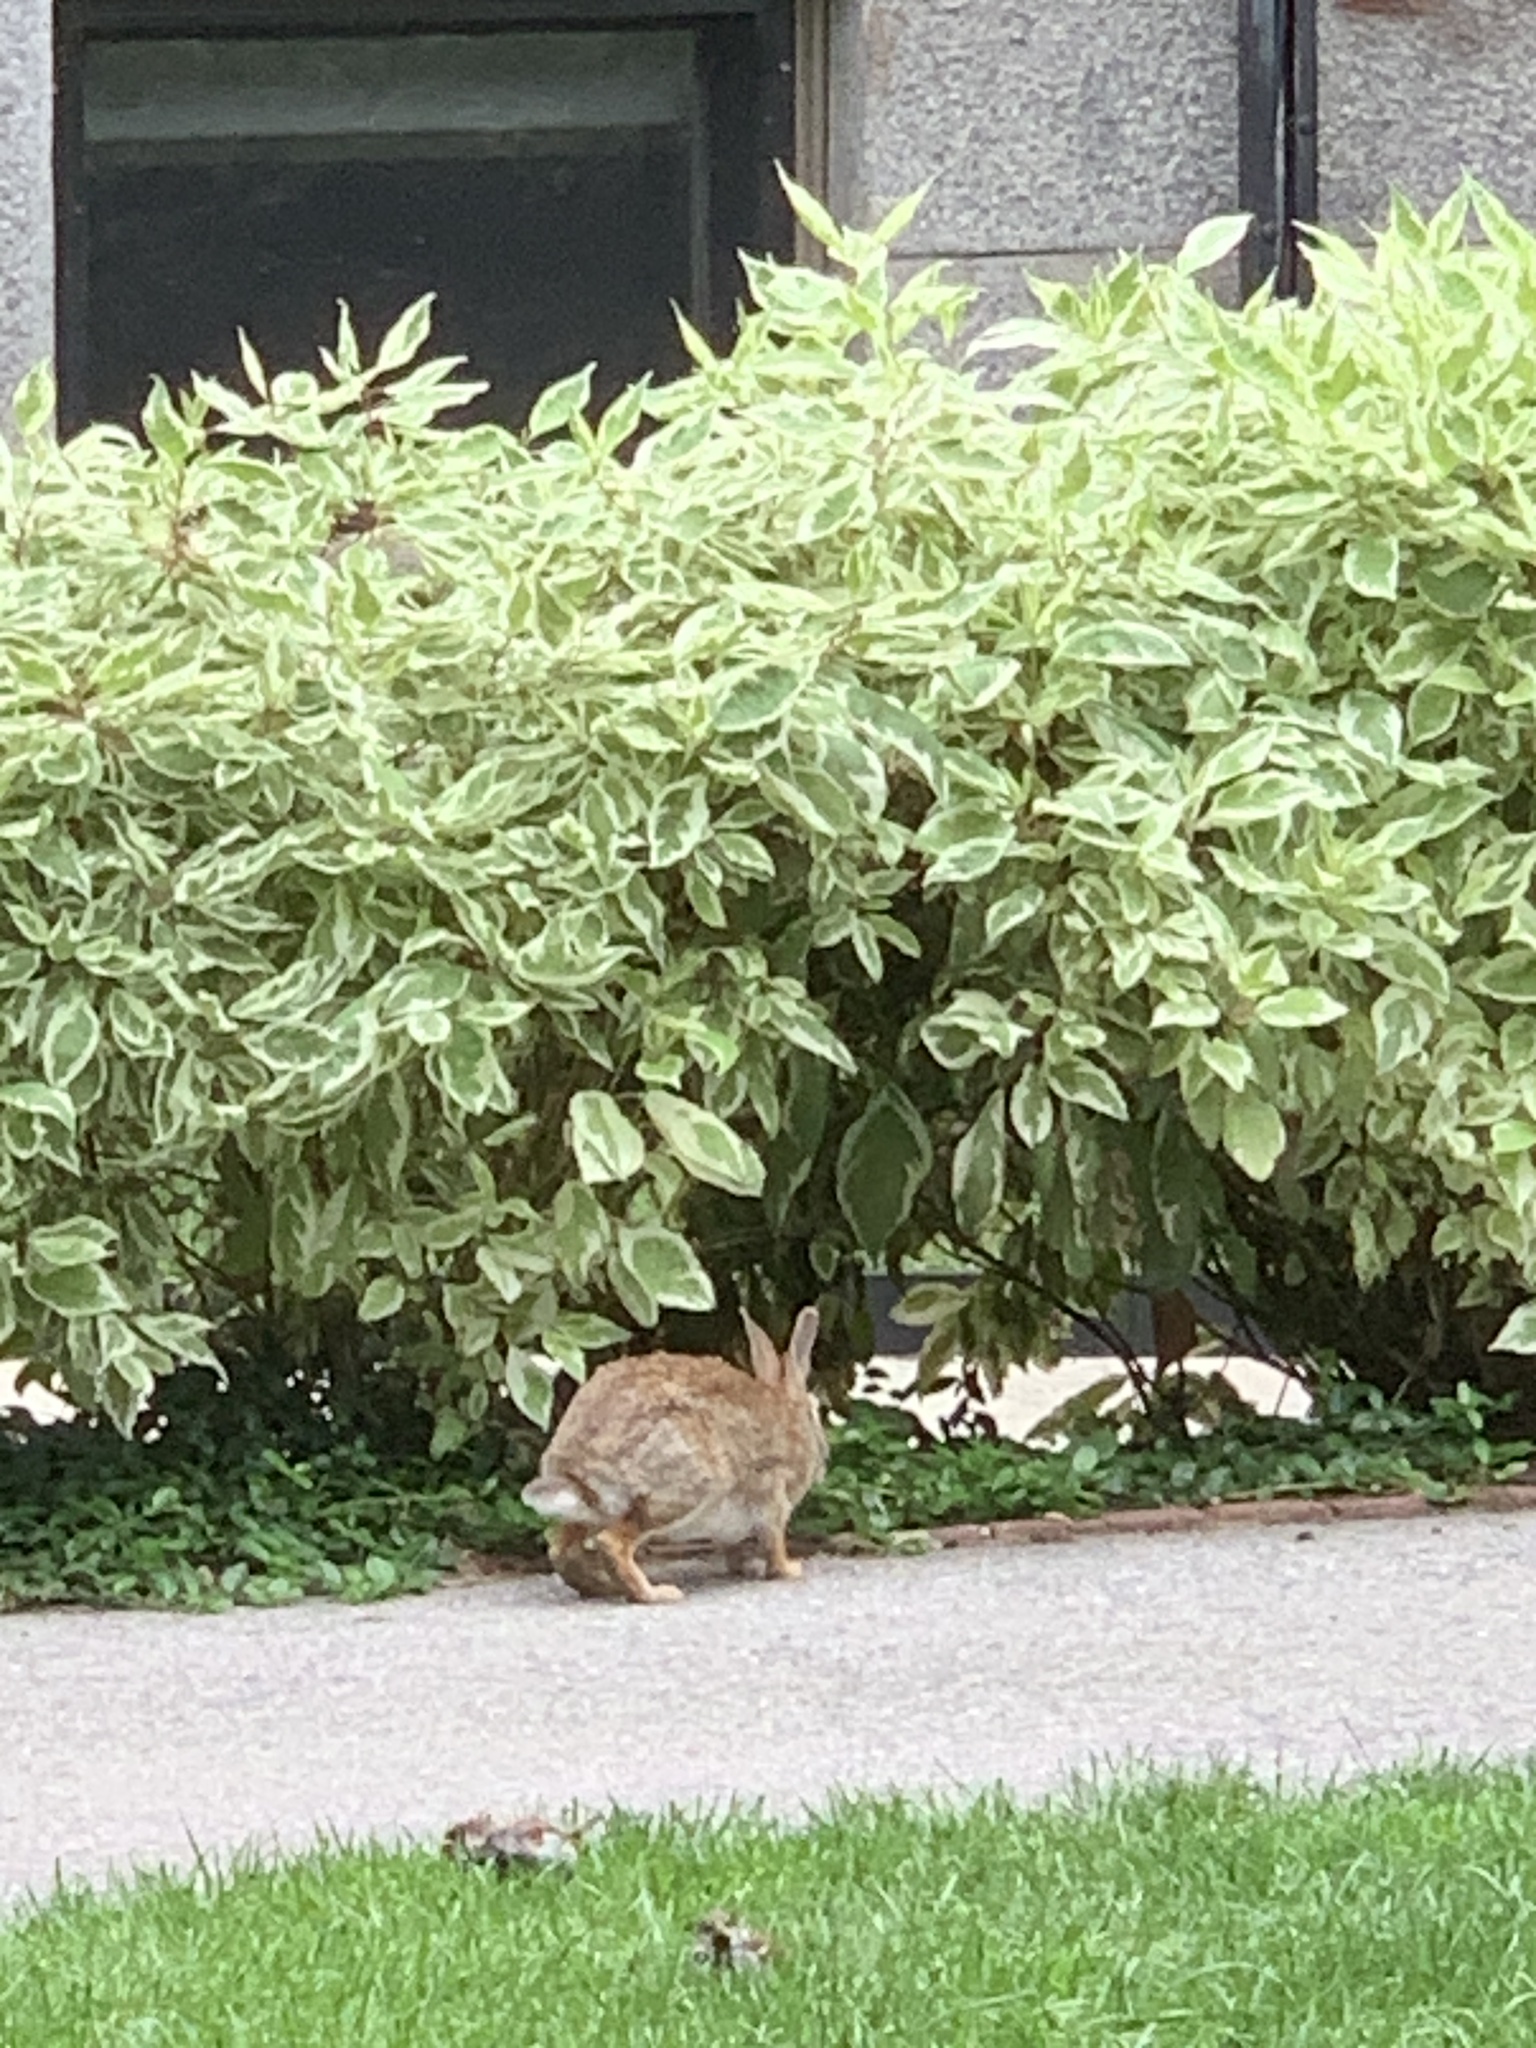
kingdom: Animalia
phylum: Chordata
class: Mammalia
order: Lagomorpha
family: Leporidae
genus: Sylvilagus
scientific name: Sylvilagus floridanus
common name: Eastern cottontail
